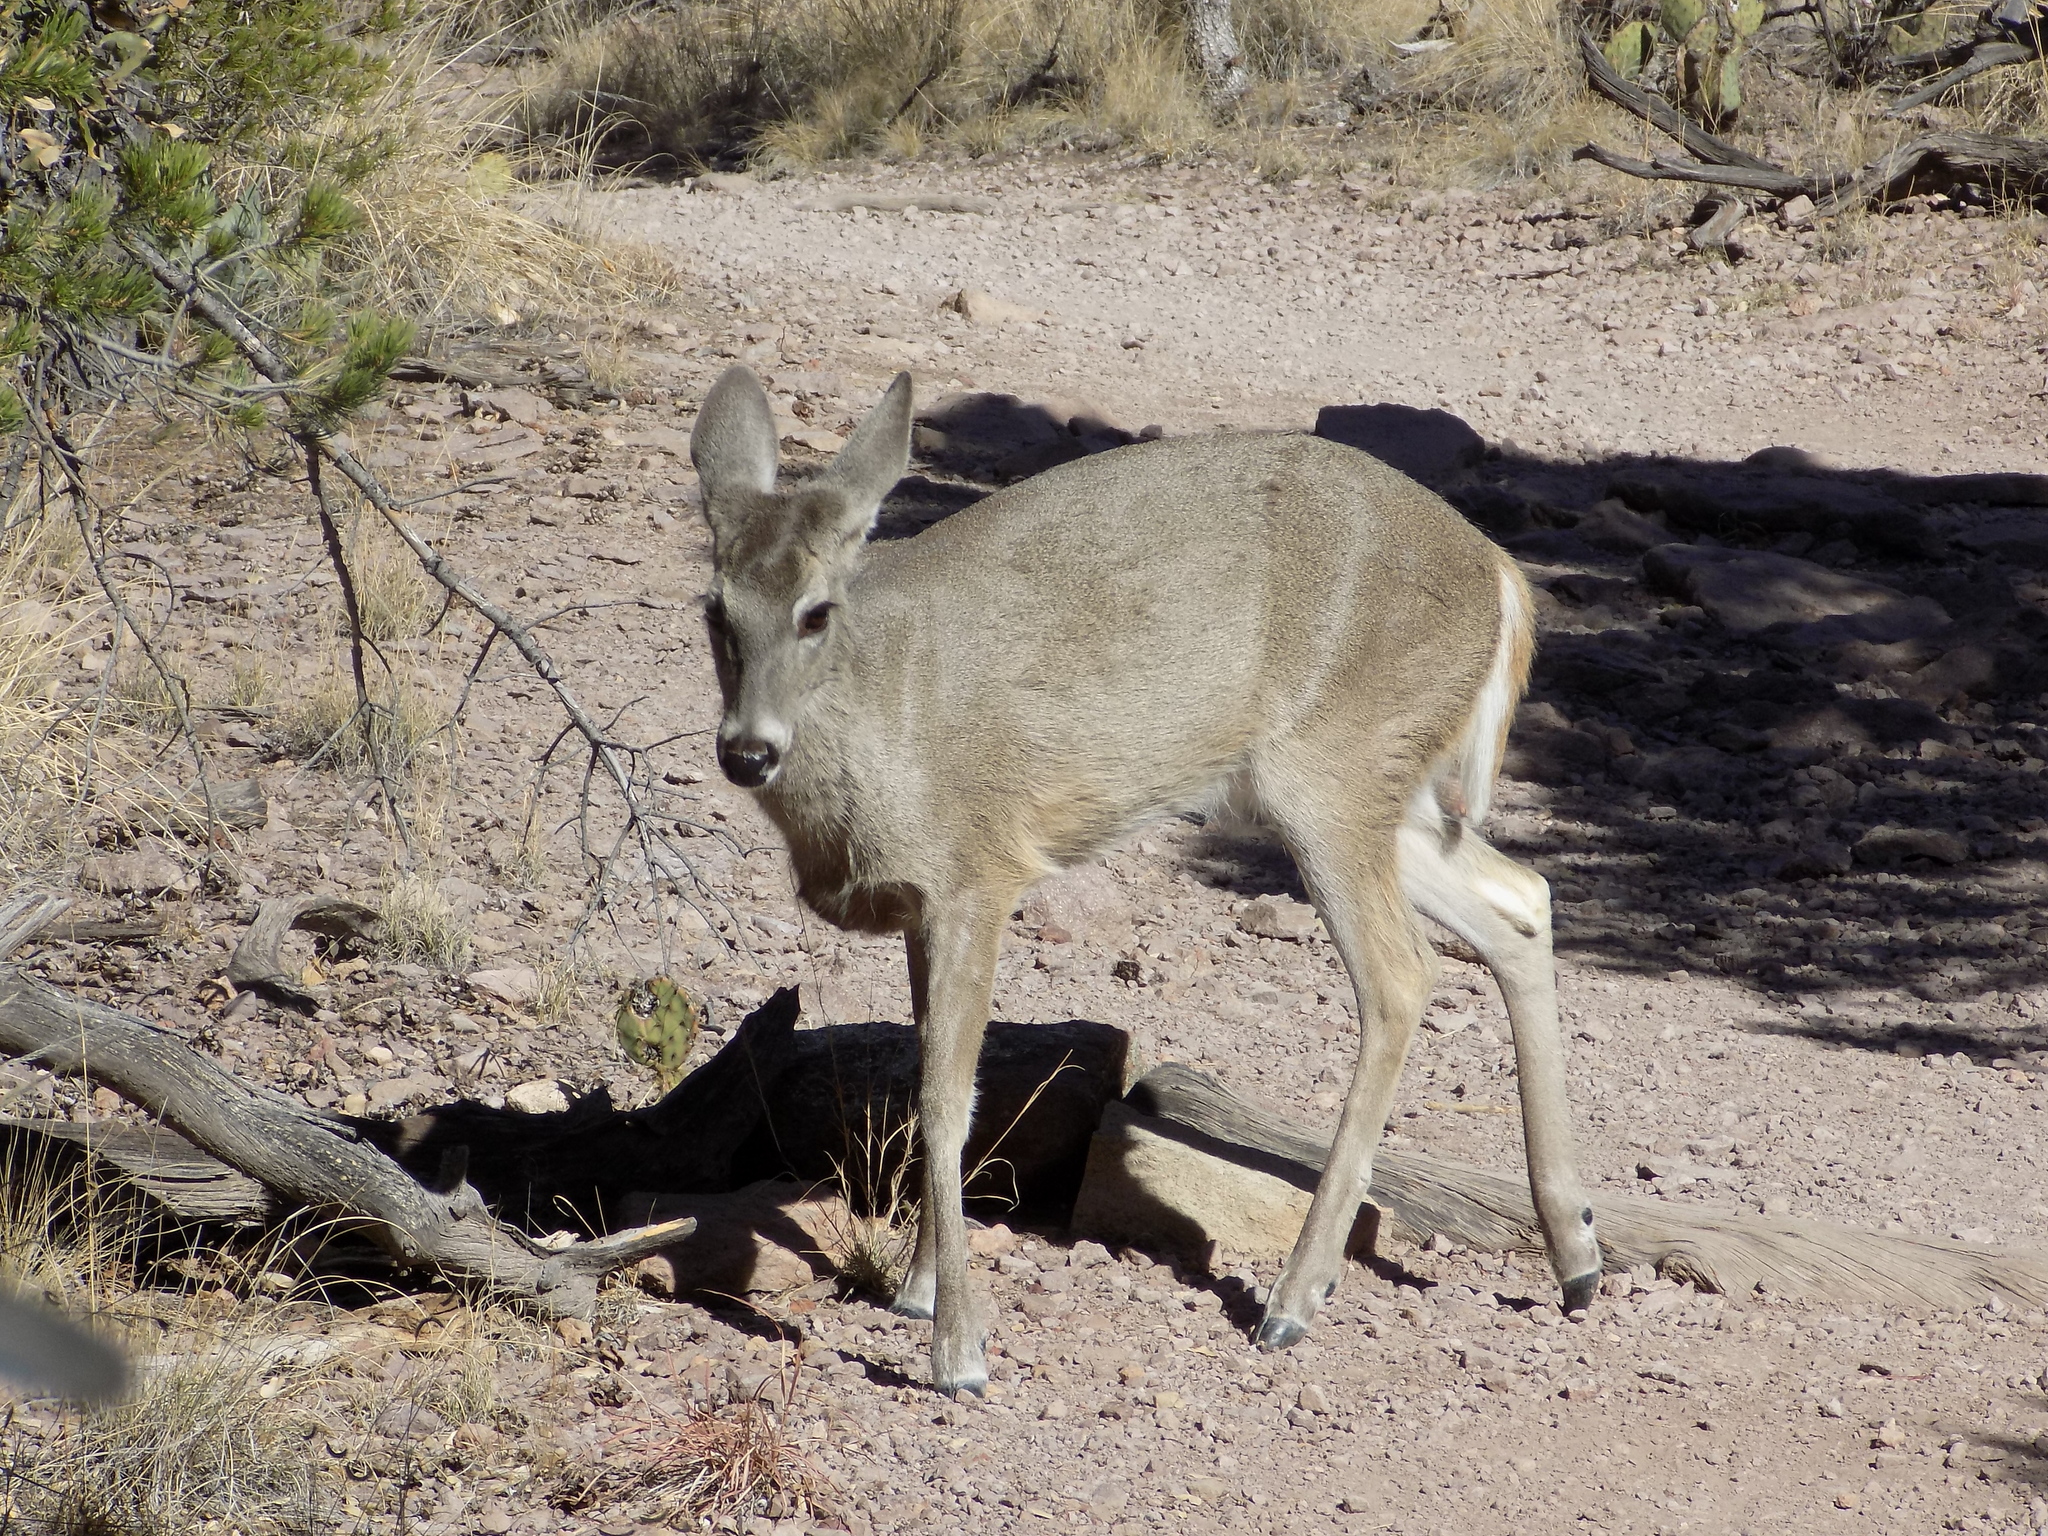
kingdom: Animalia
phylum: Chordata
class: Mammalia
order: Artiodactyla
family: Cervidae
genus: Odocoileus
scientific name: Odocoileus virginianus
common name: White-tailed deer
